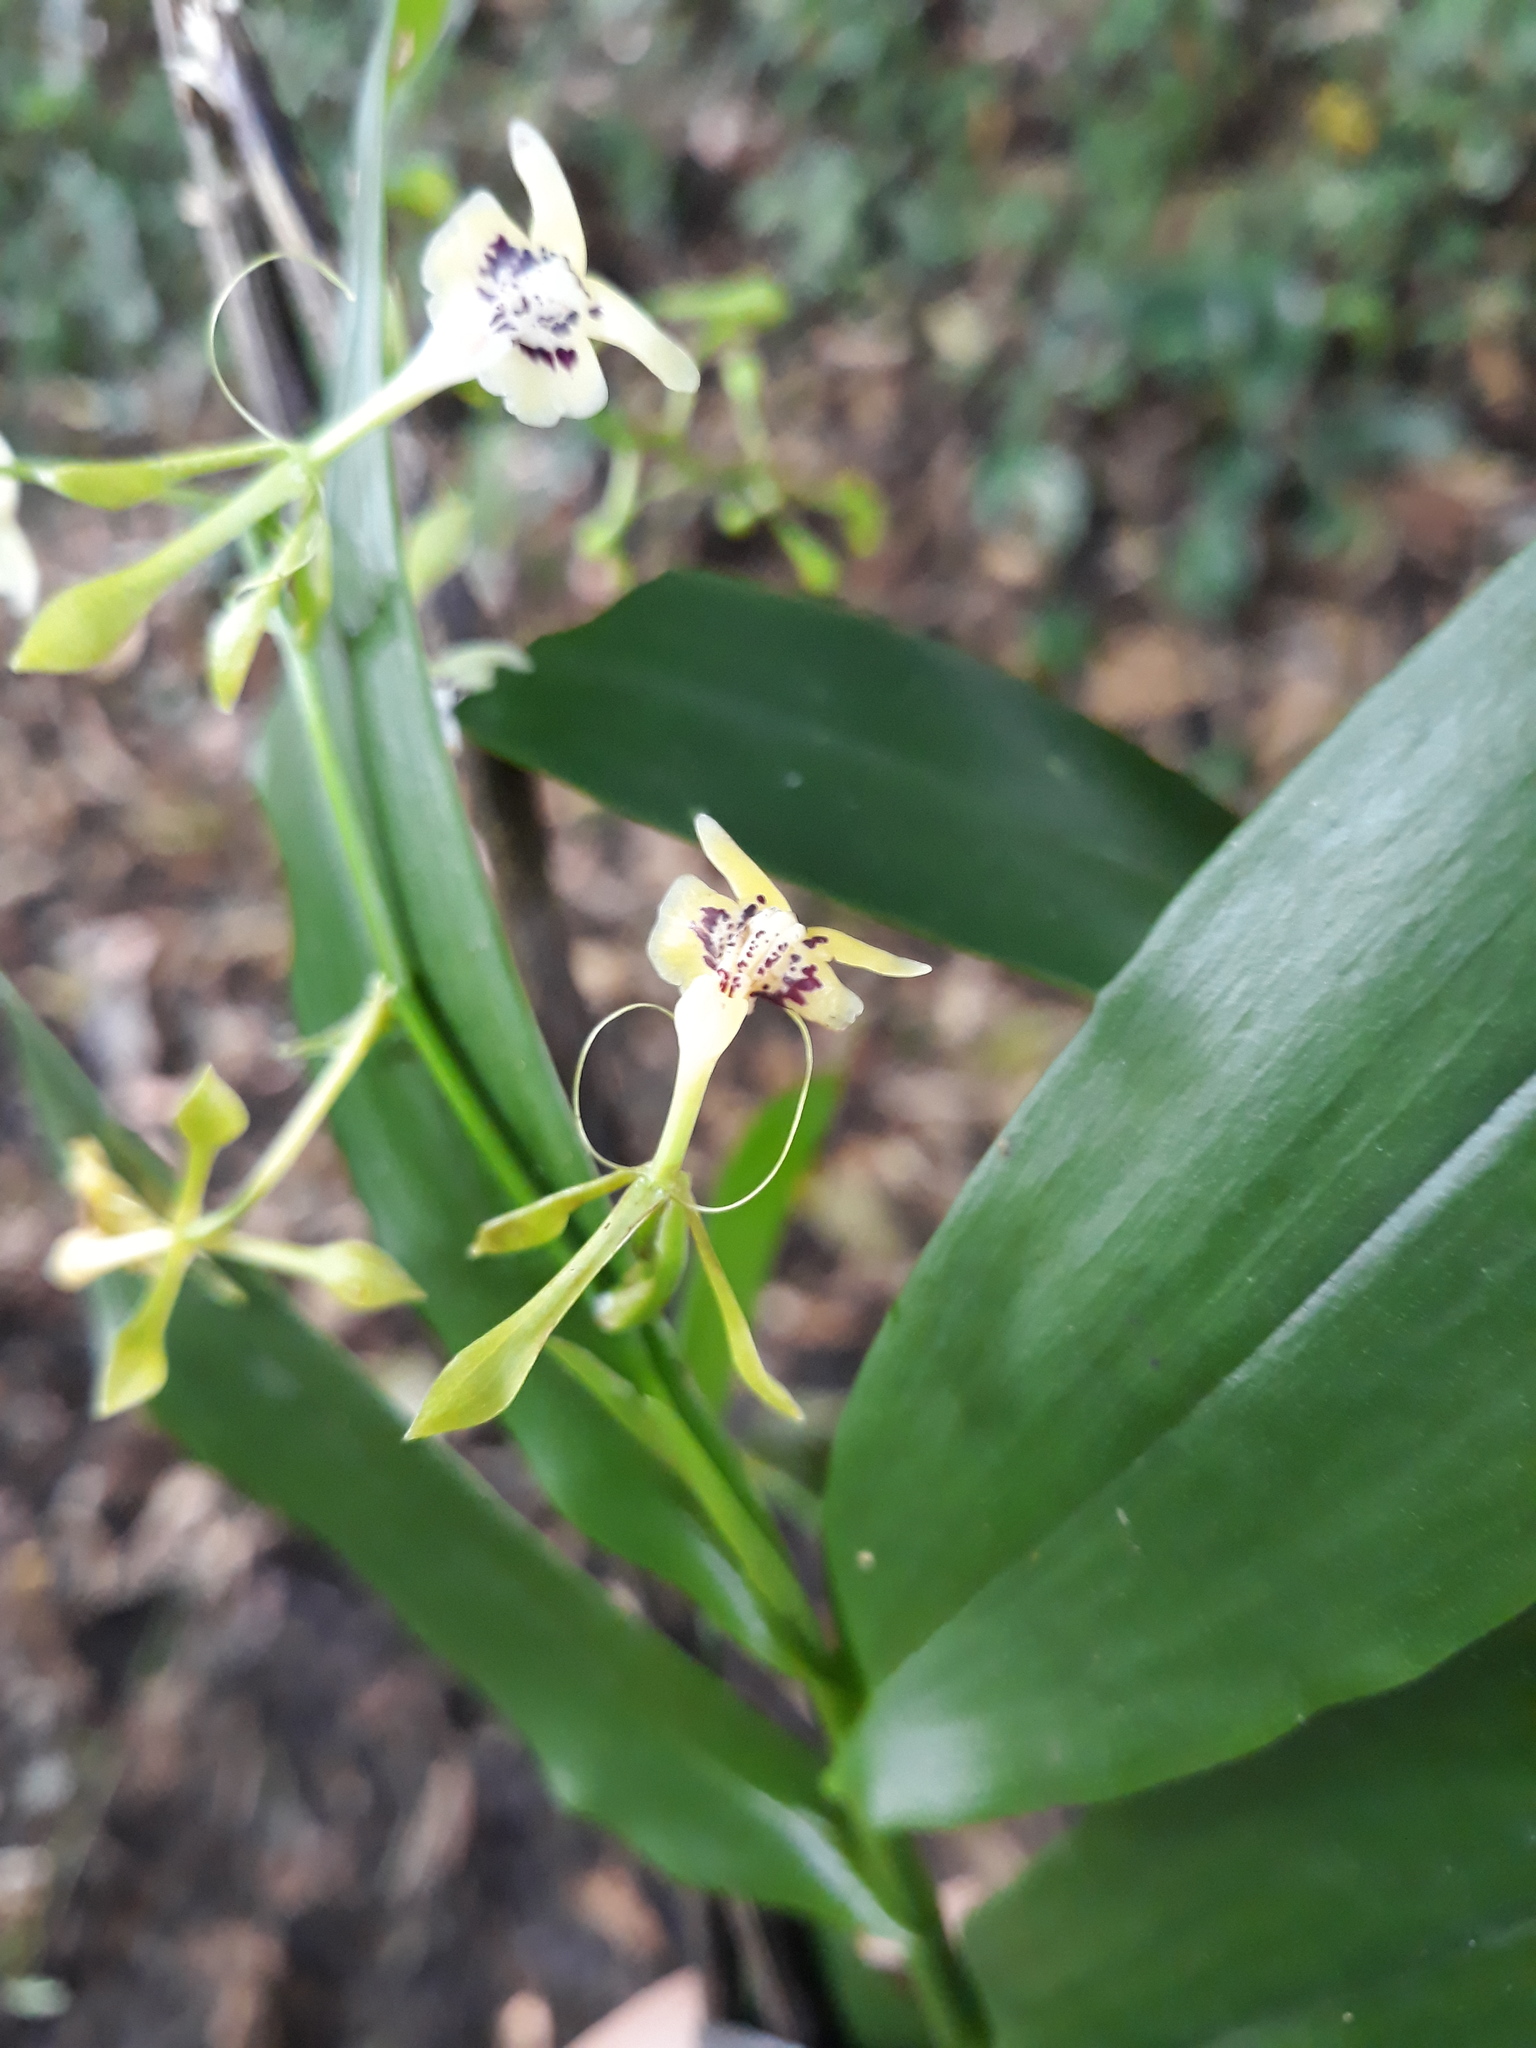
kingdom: Plantae
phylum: Tracheophyta
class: Liliopsida
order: Asparagales
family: Orchidaceae
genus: Epidendrum
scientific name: Epidendrum veroscriptum
